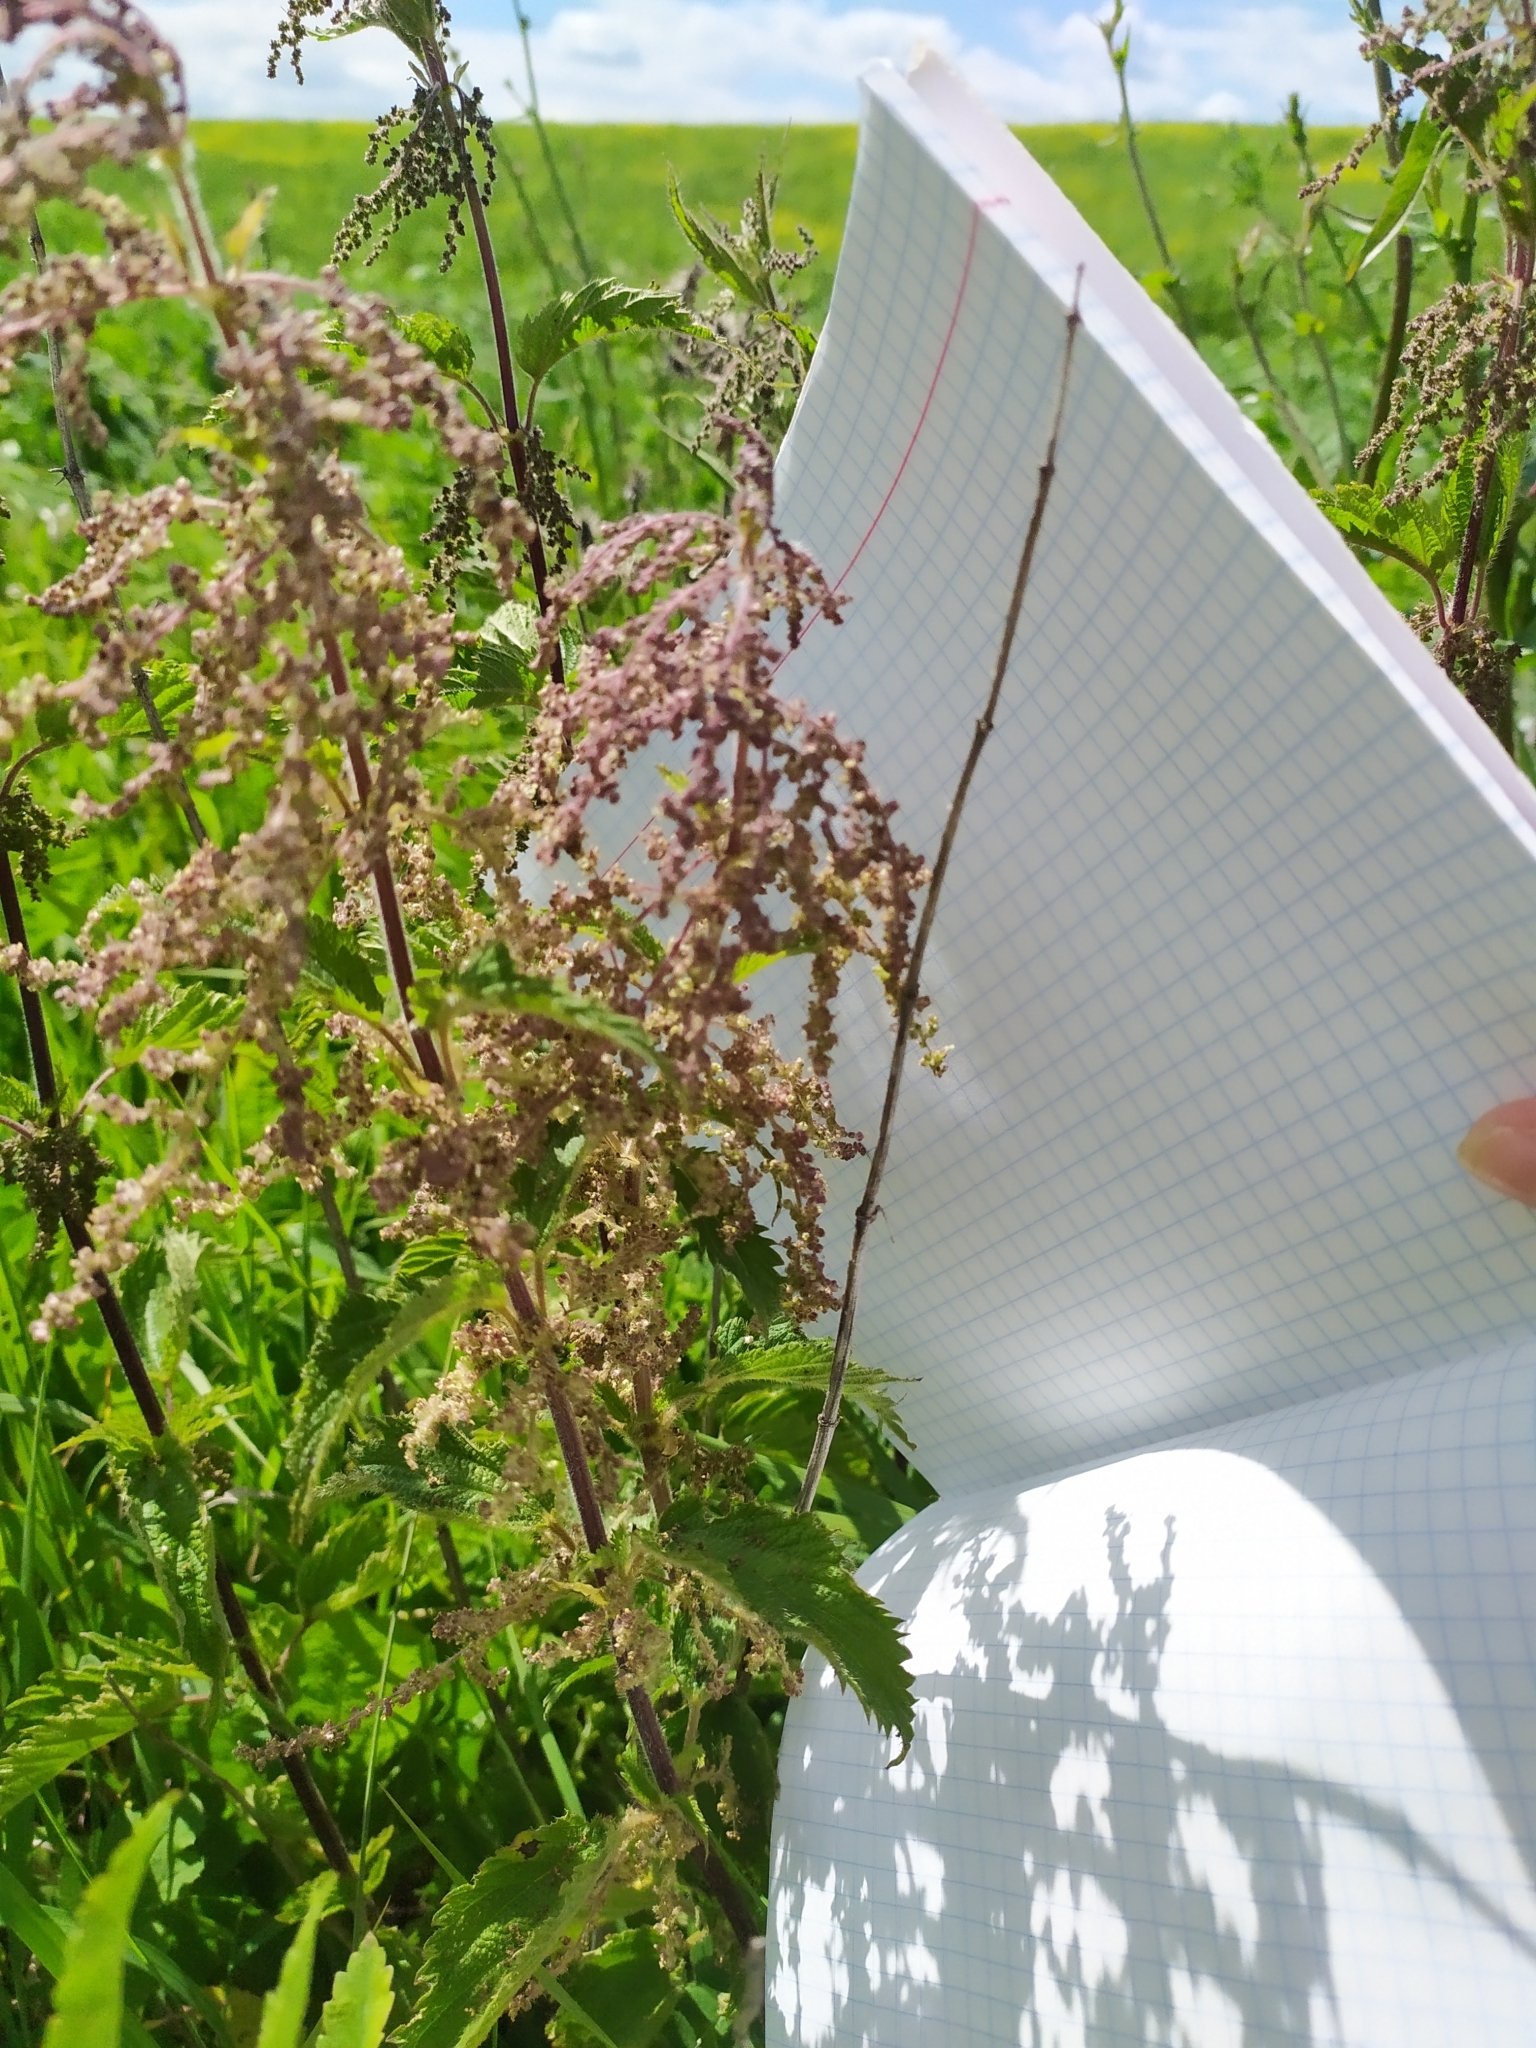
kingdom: Plantae
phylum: Tracheophyta
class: Magnoliopsida
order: Rosales
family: Urticaceae
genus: Urtica
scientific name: Urtica dioica
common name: Common nettle
